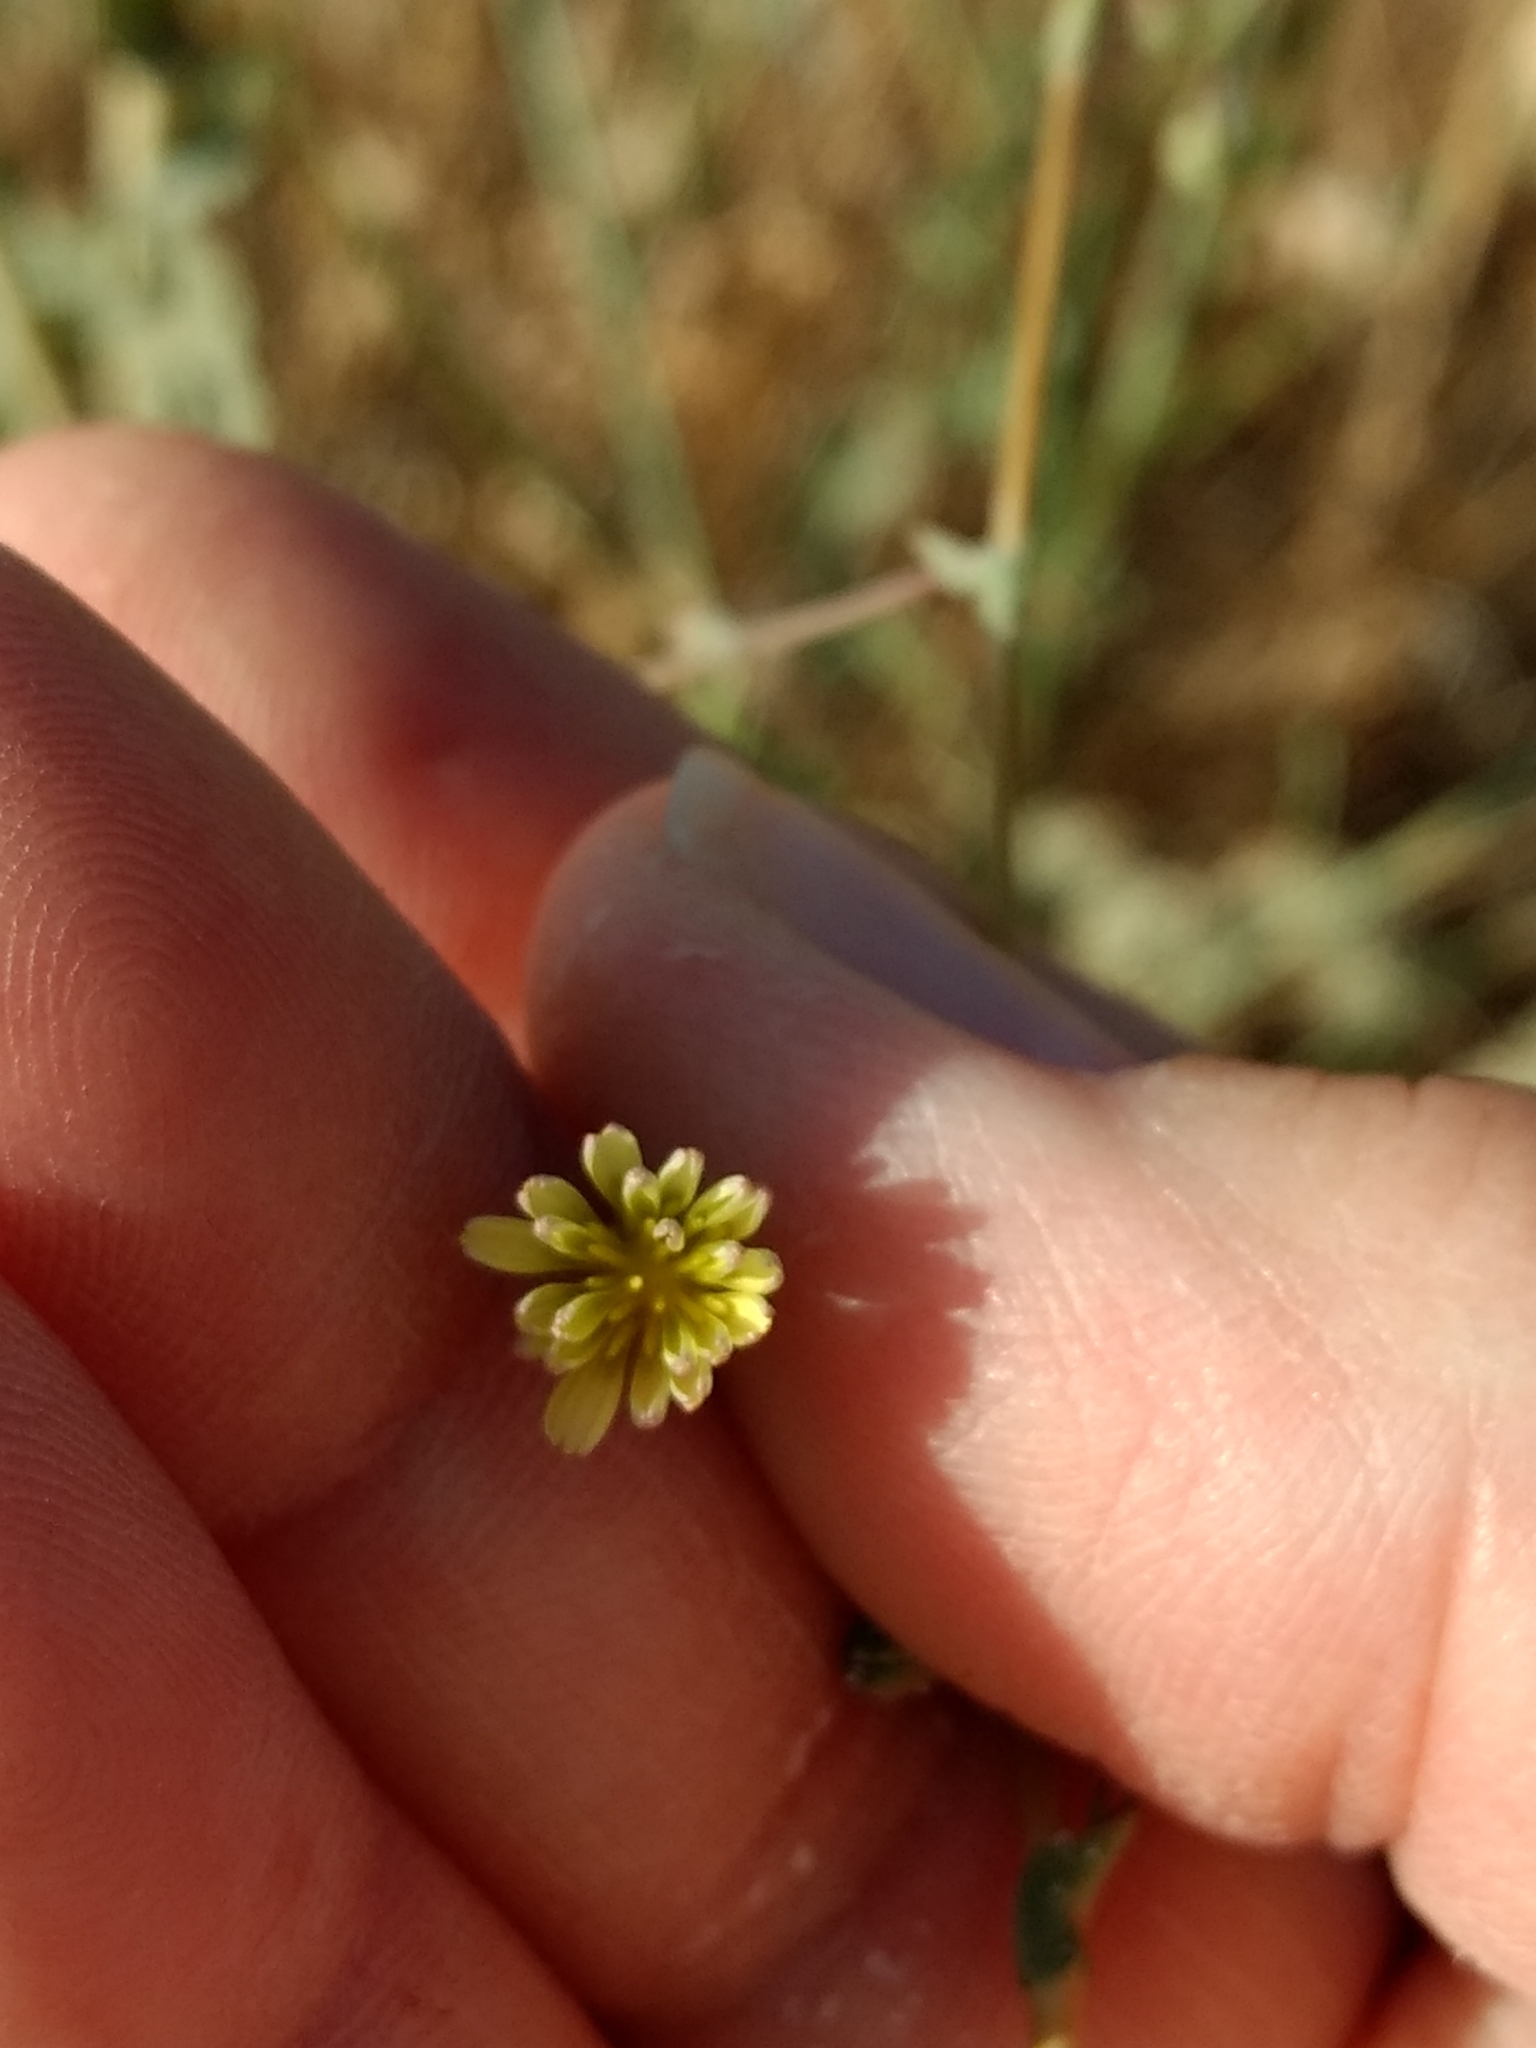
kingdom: Plantae
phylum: Tracheophyta
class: Magnoliopsida
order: Asterales
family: Asteraceae
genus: Lactuca
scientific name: Lactuca serriola
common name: Prickly lettuce
